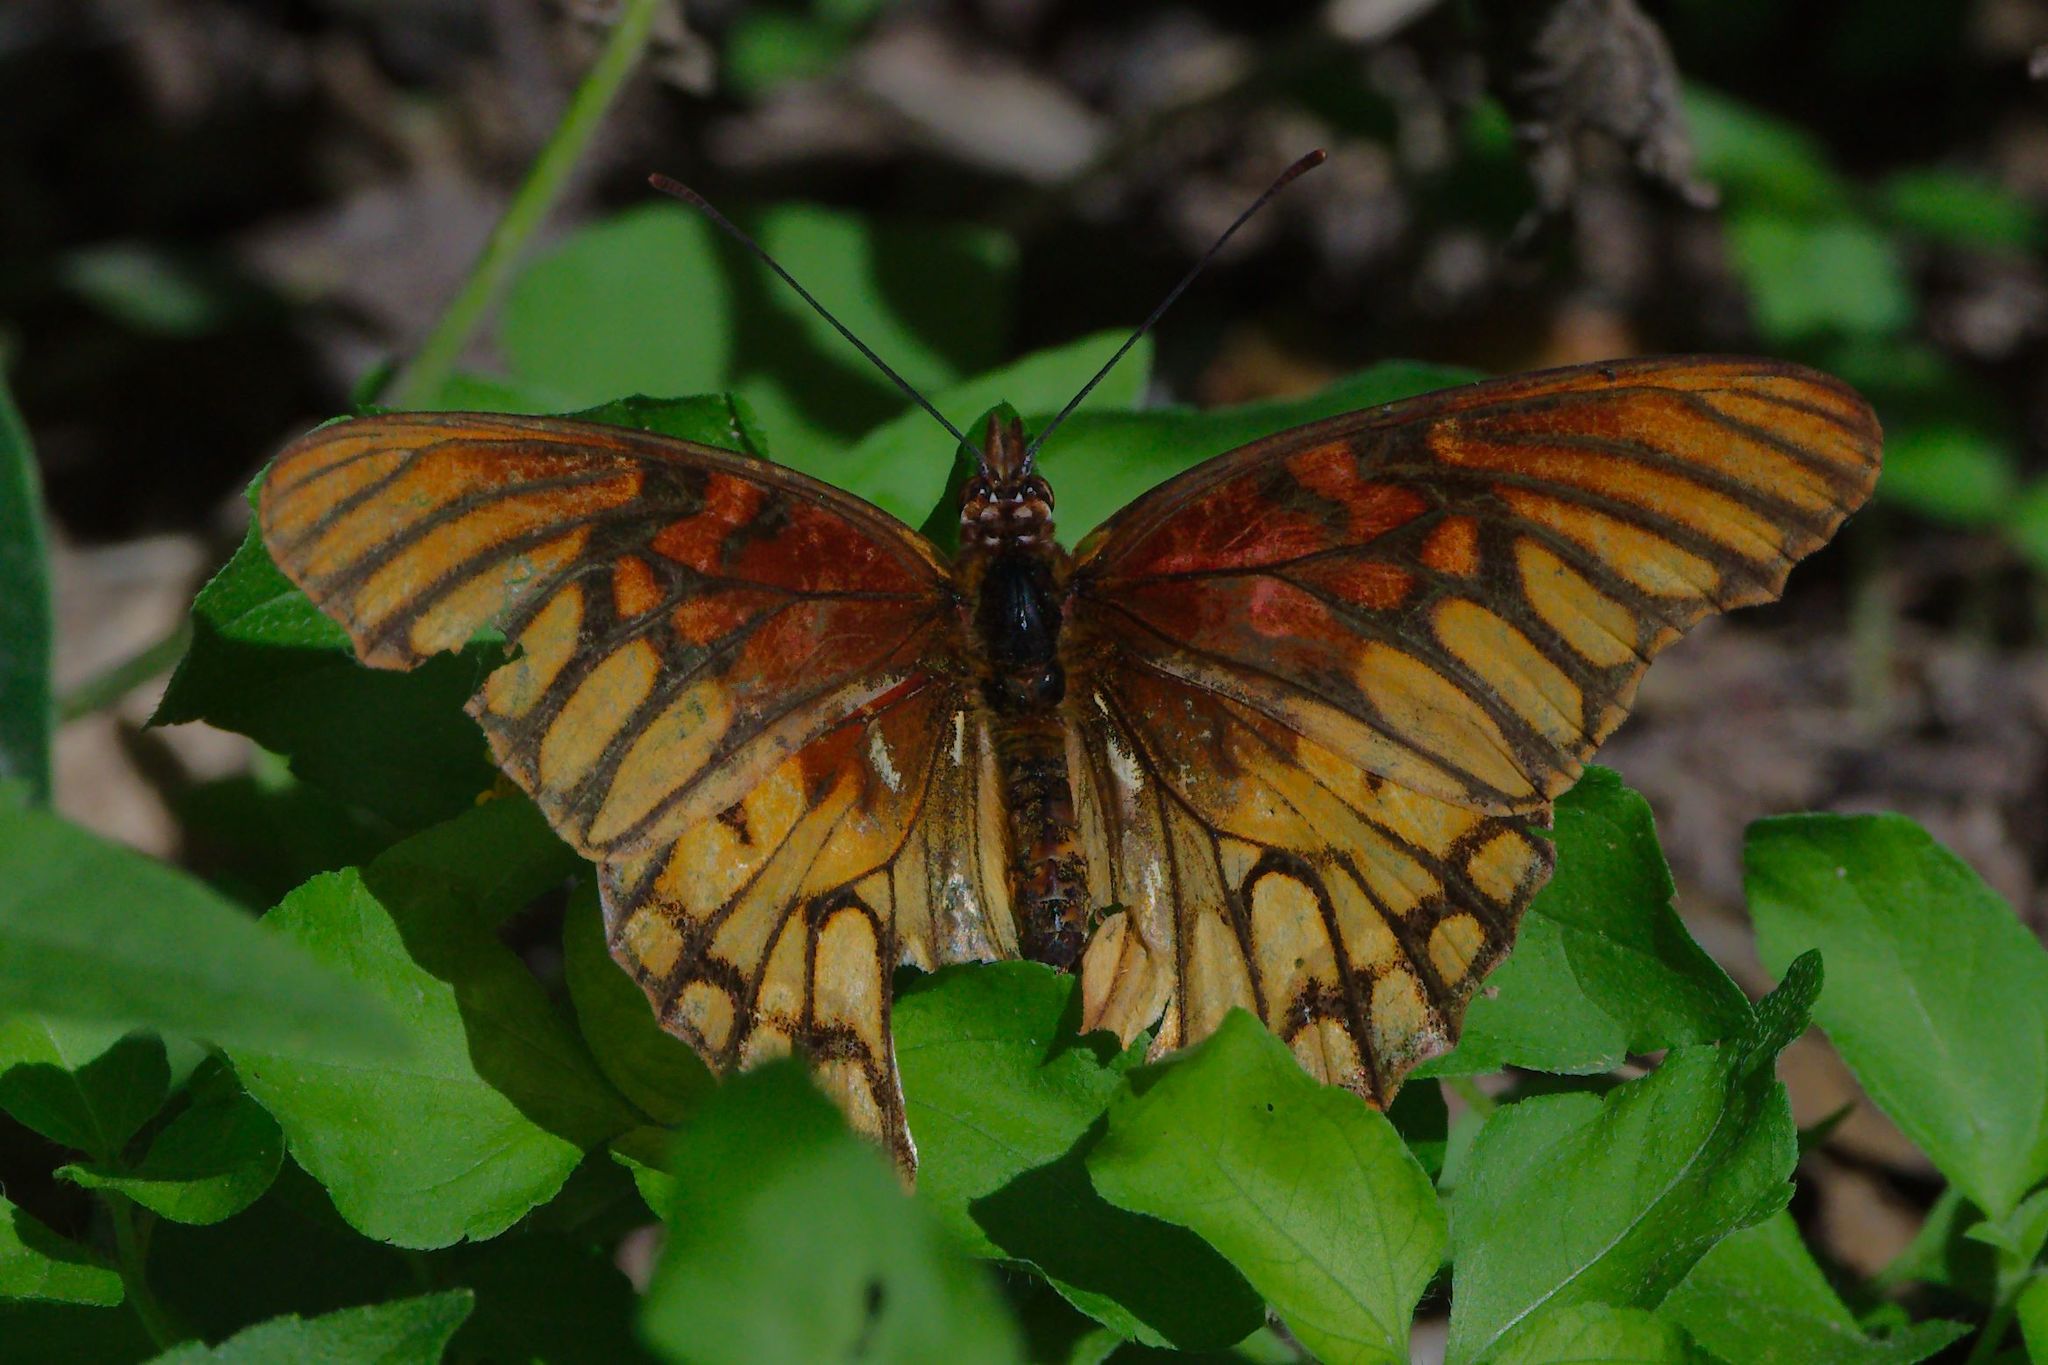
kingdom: Animalia
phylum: Arthropoda
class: Insecta
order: Lepidoptera
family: Nymphalidae
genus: Dione
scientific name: Dione moneta
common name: Mexican silverspot
